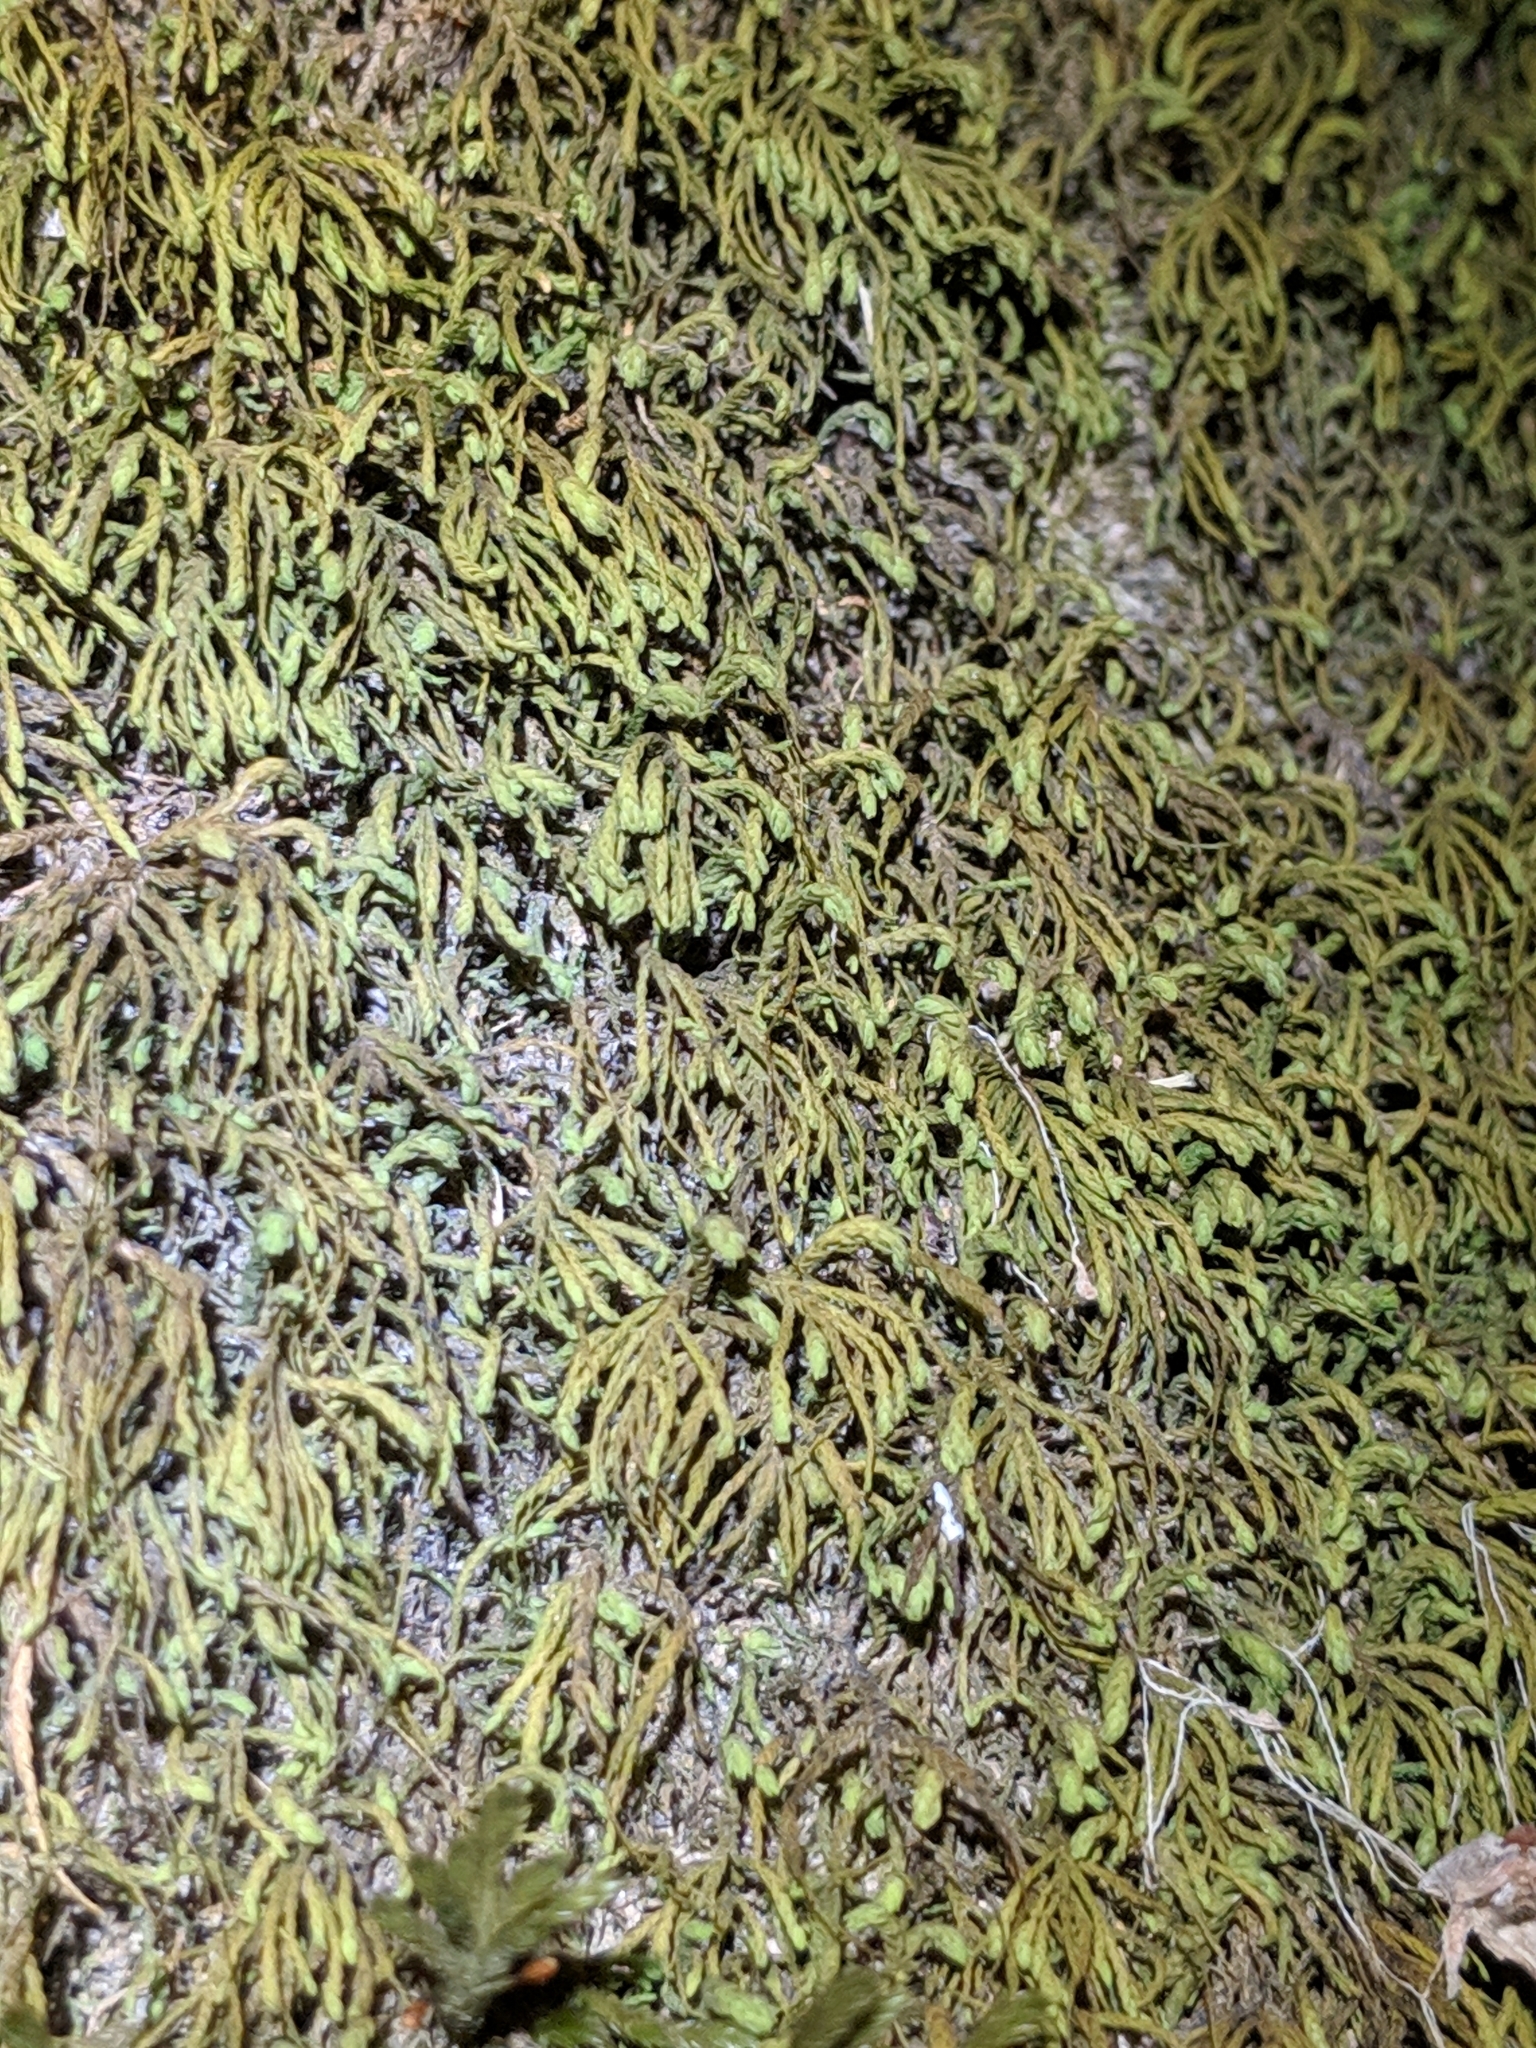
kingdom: Plantae
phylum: Bryophyta
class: Bryopsida
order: Hypnales
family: Neckeraceae
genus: Pseudanomodon
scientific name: Pseudanomodon attenuatus
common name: Tree-skirt moss
